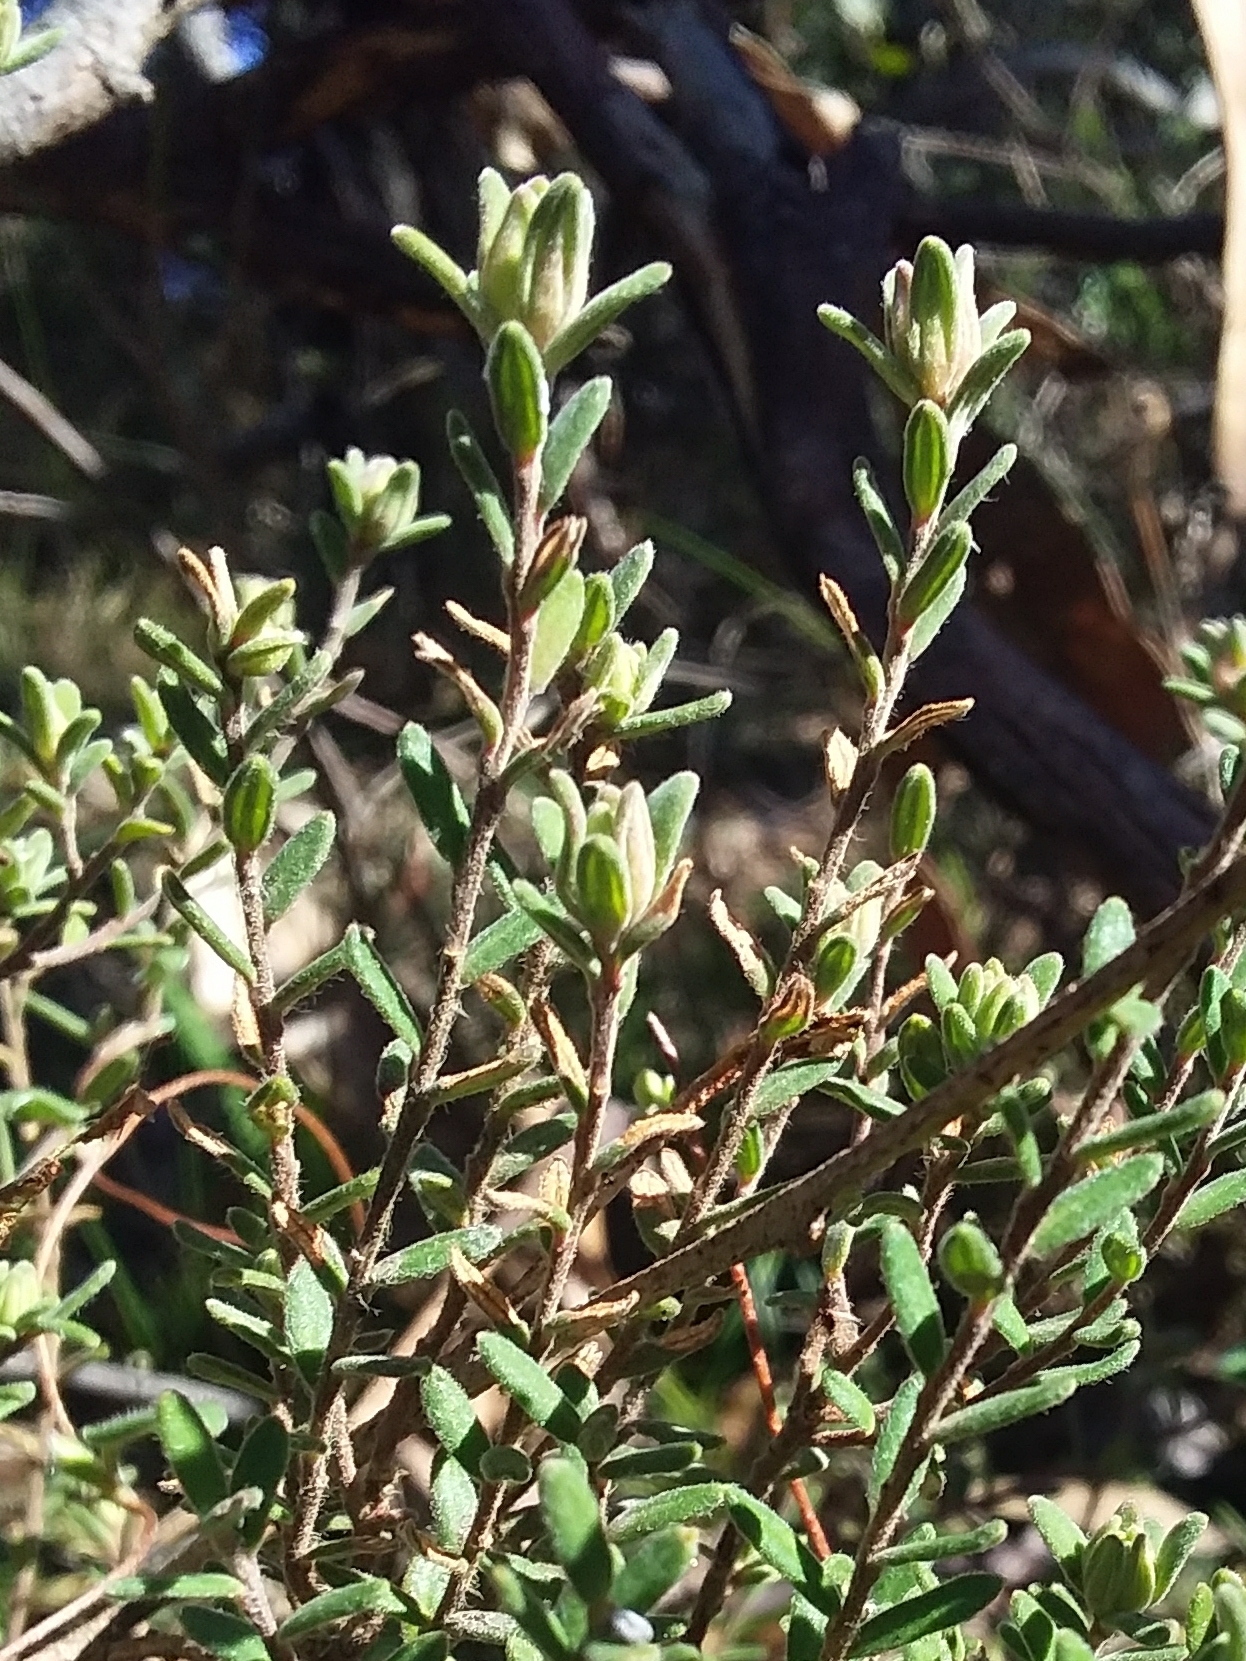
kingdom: Plantae
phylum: Tracheophyta
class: Magnoliopsida
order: Dilleniales
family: Dilleniaceae
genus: Hibbertia
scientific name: Hibbertia crinita
